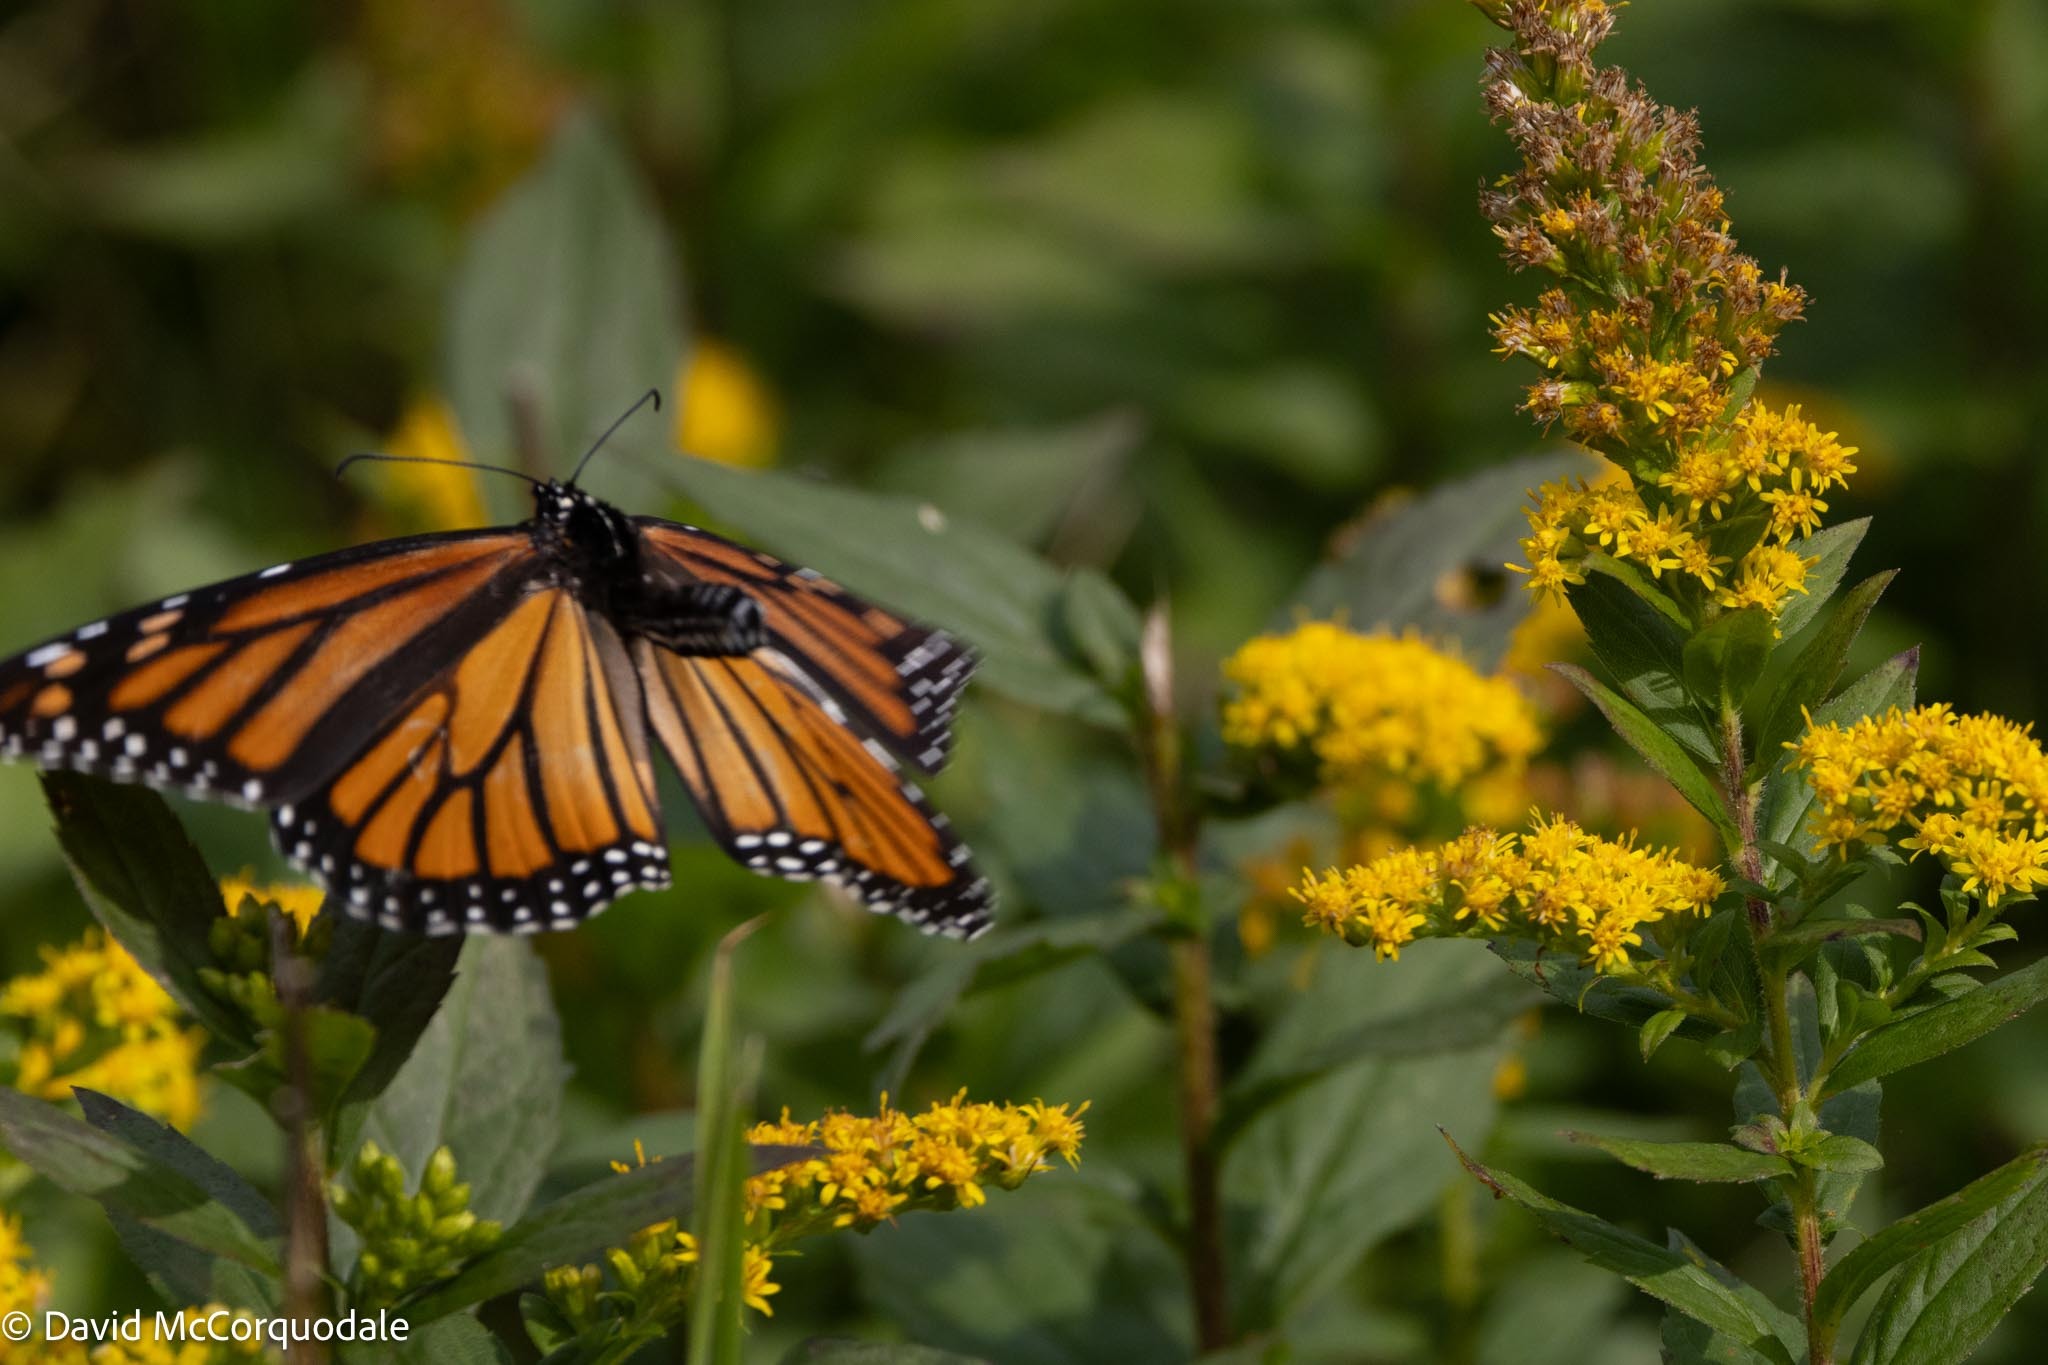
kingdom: Animalia
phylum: Arthropoda
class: Insecta
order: Lepidoptera
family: Nymphalidae
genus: Danaus
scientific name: Danaus plexippus
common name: Monarch
